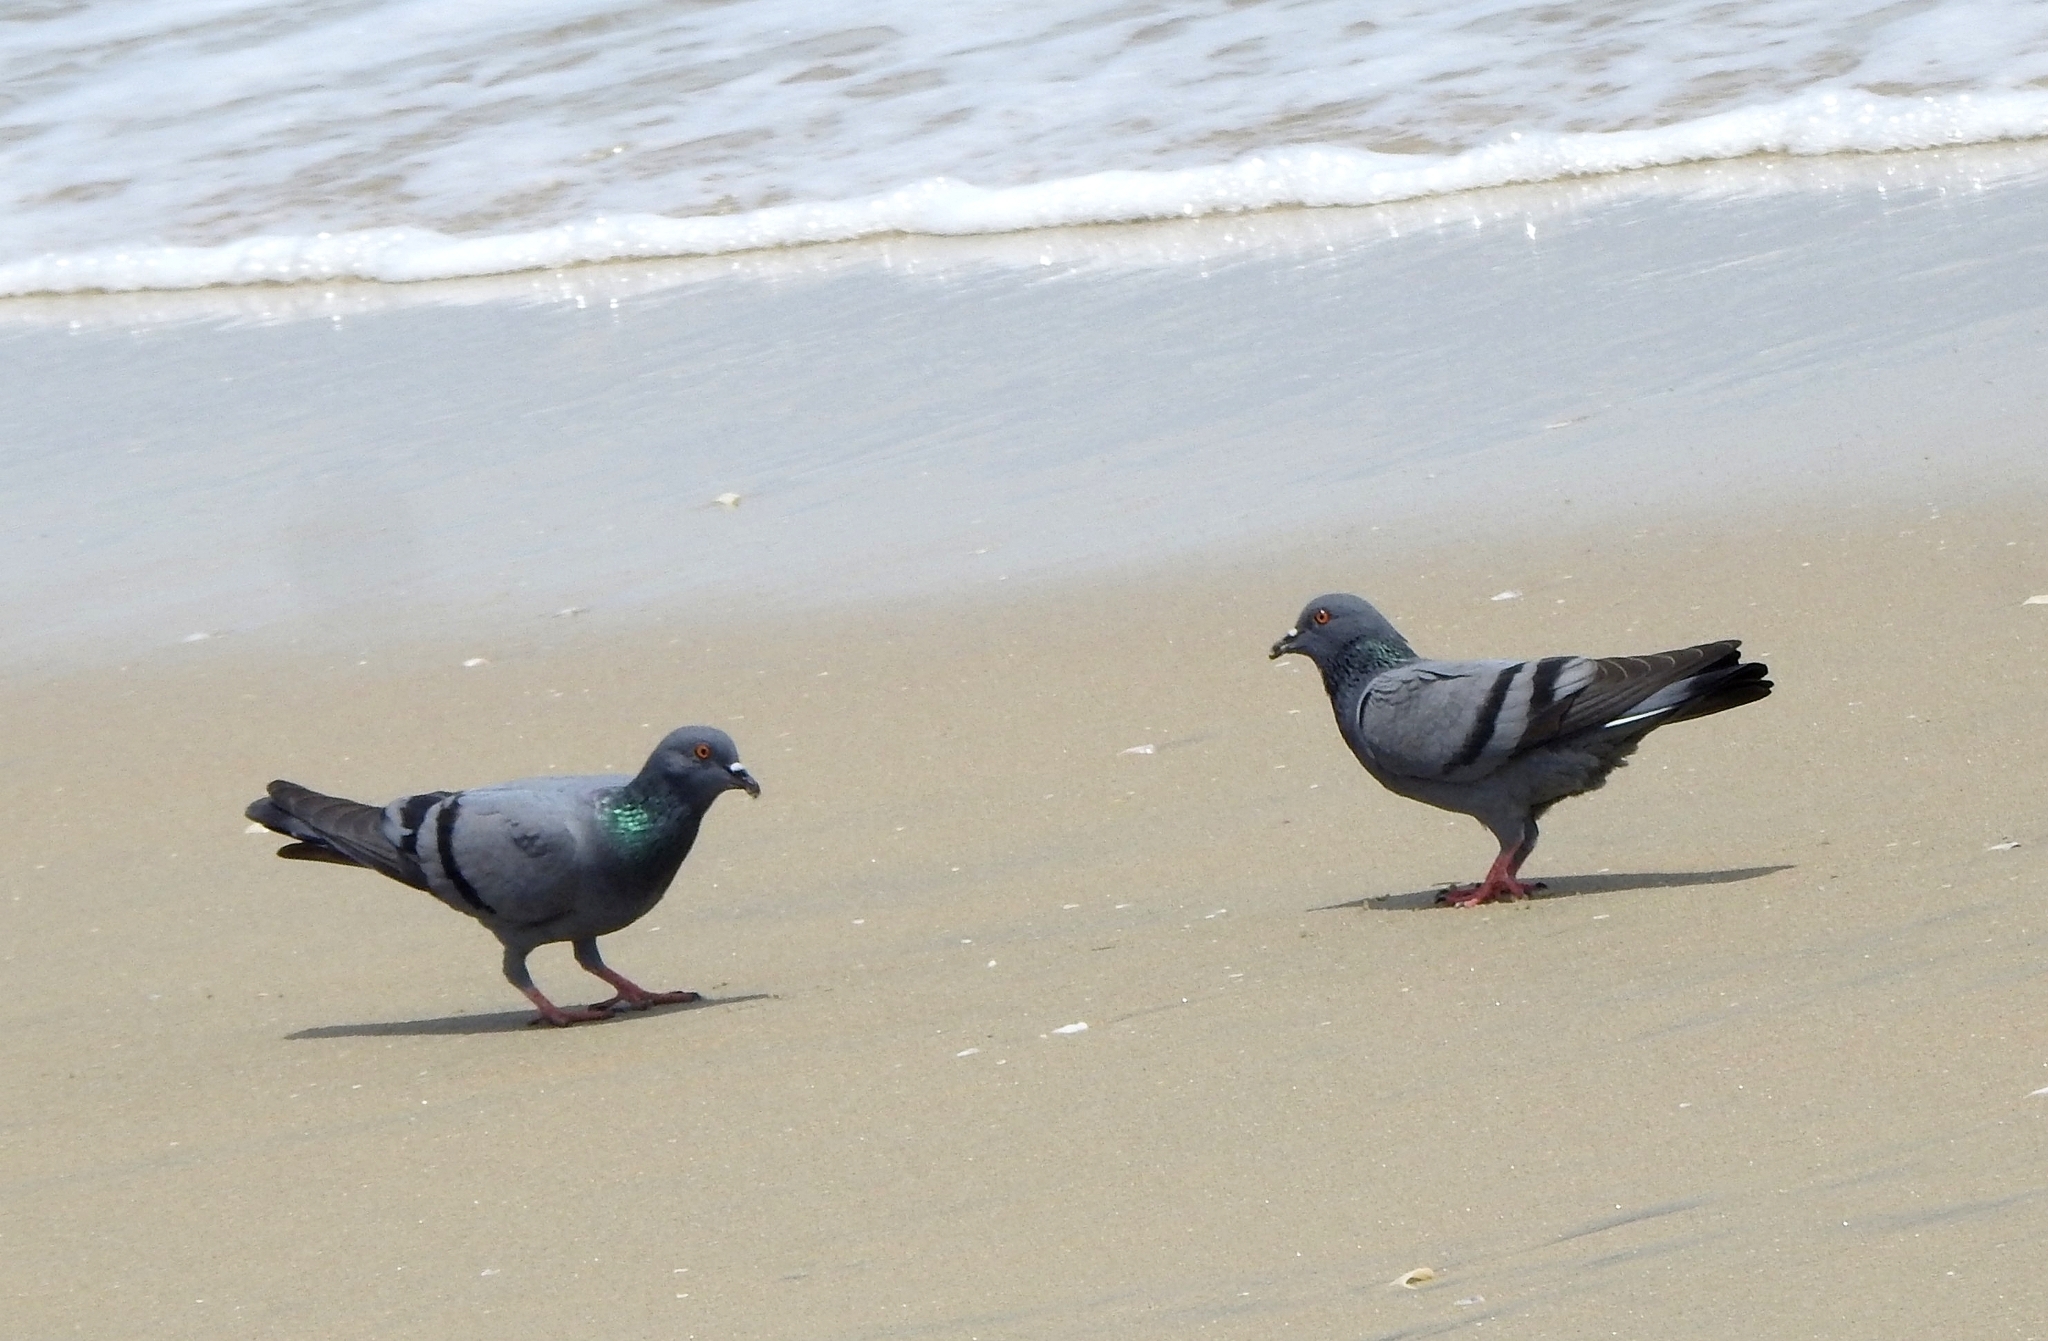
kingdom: Animalia
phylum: Chordata
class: Aves
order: Columbiformes
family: Columbidae
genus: Columba
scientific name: Columba livia
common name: Rock pigeon
